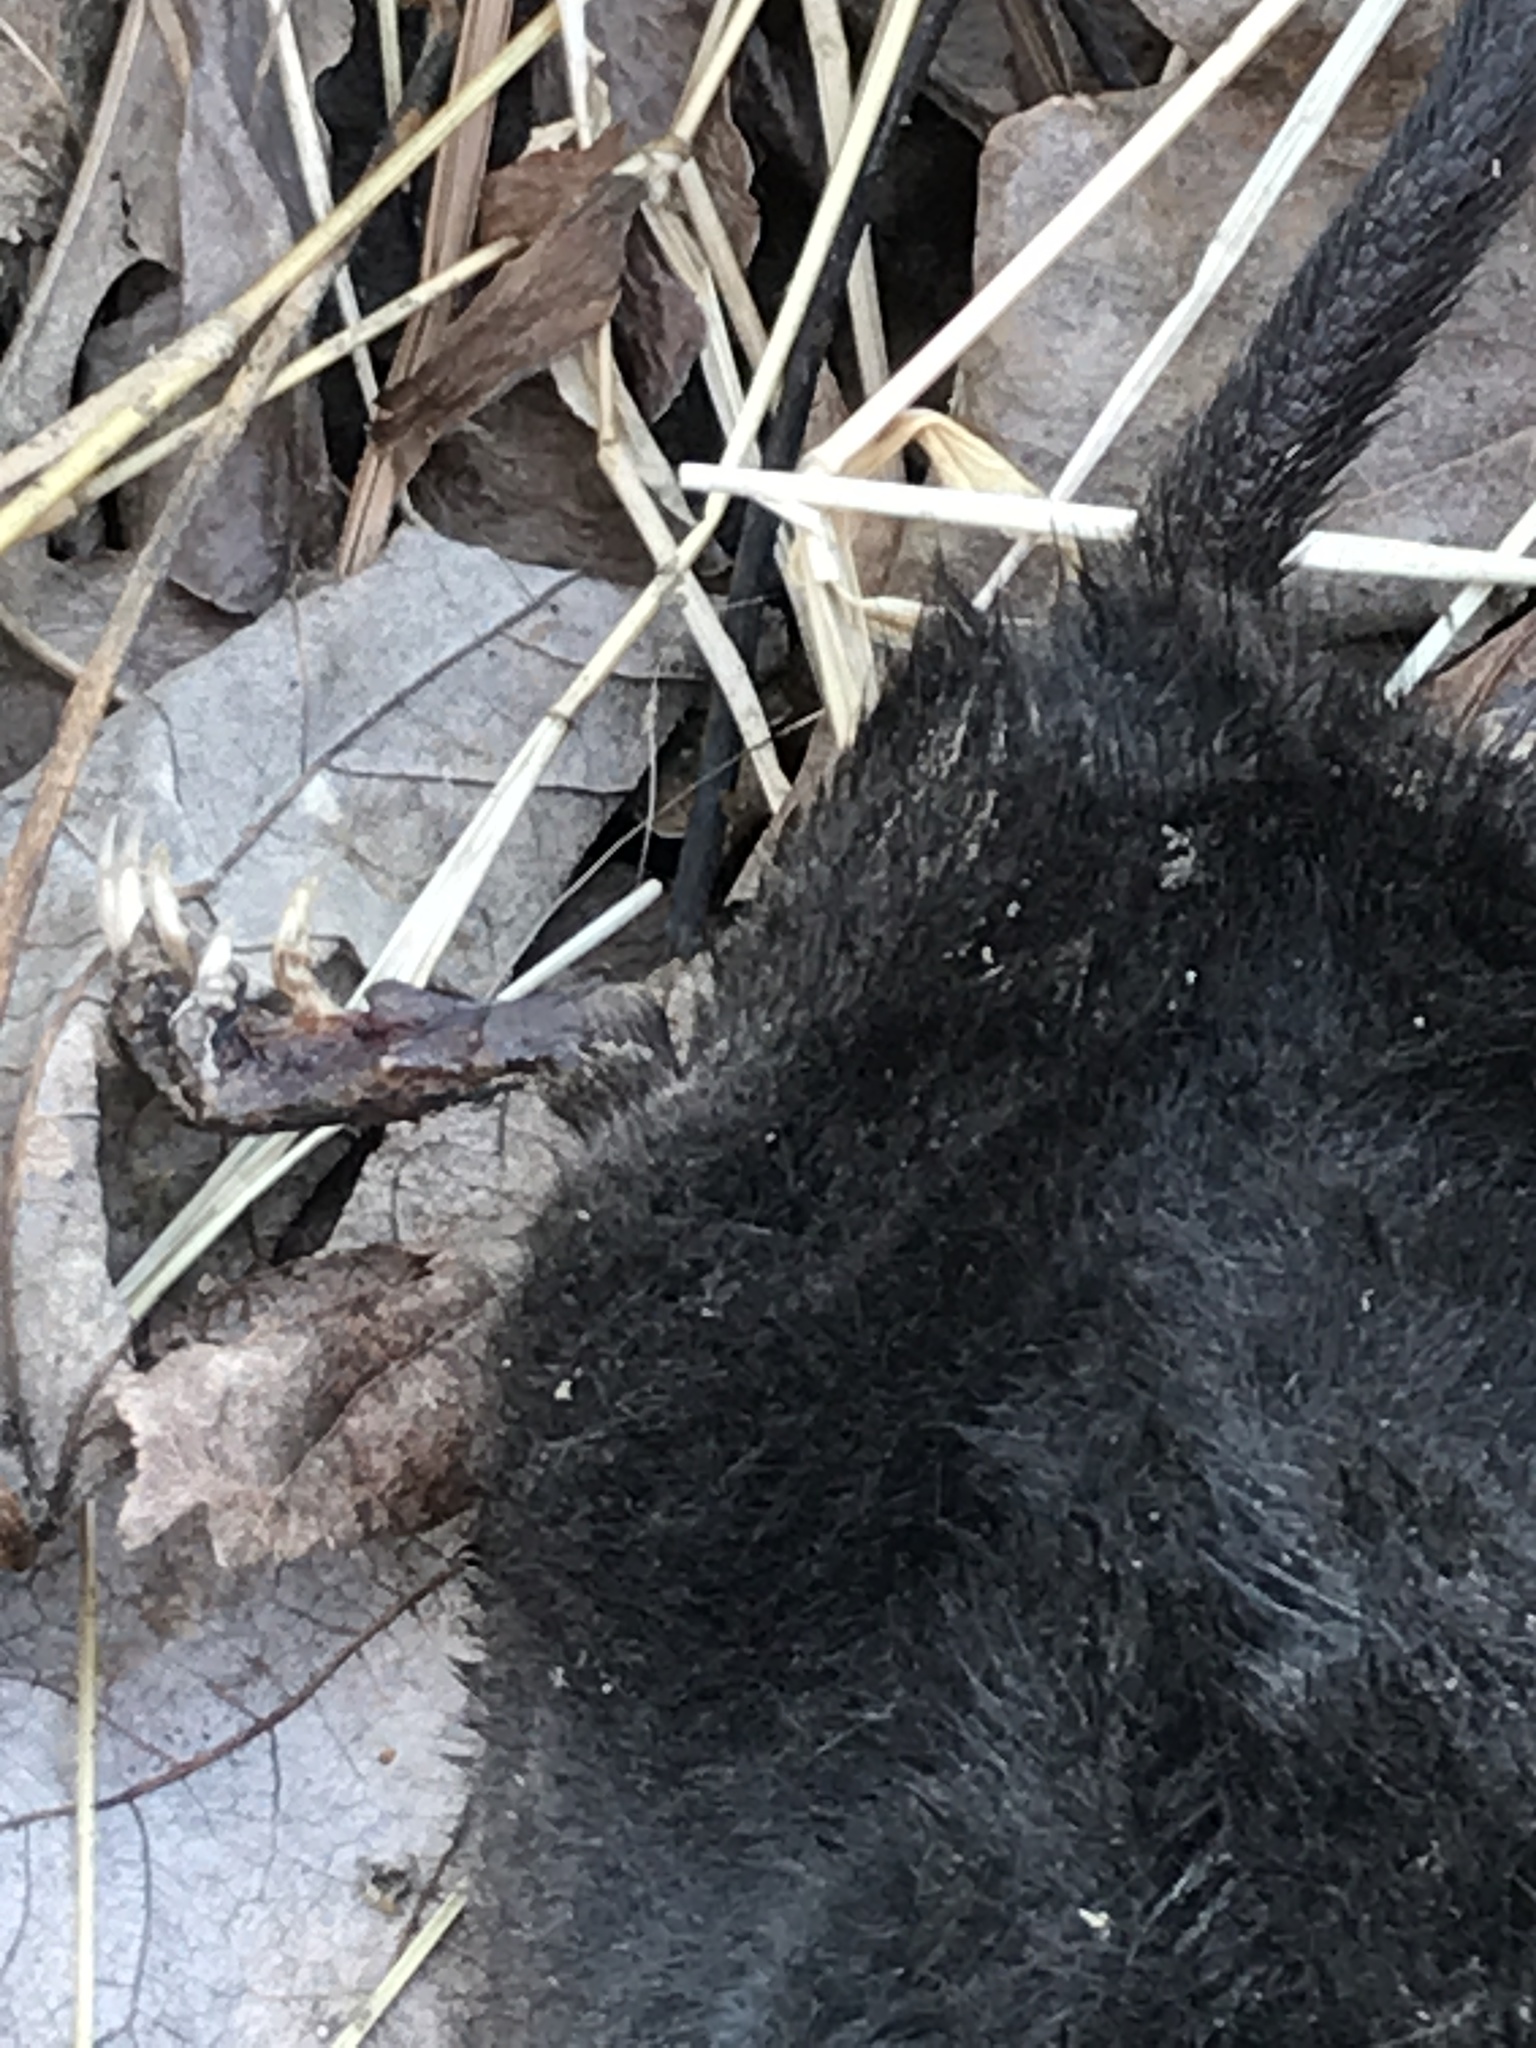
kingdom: Animalia
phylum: Chordata
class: Mammalia
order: Soricomorpha
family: Talpidae
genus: Condylura
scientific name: Condylura cristata
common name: Star-nosed mole
